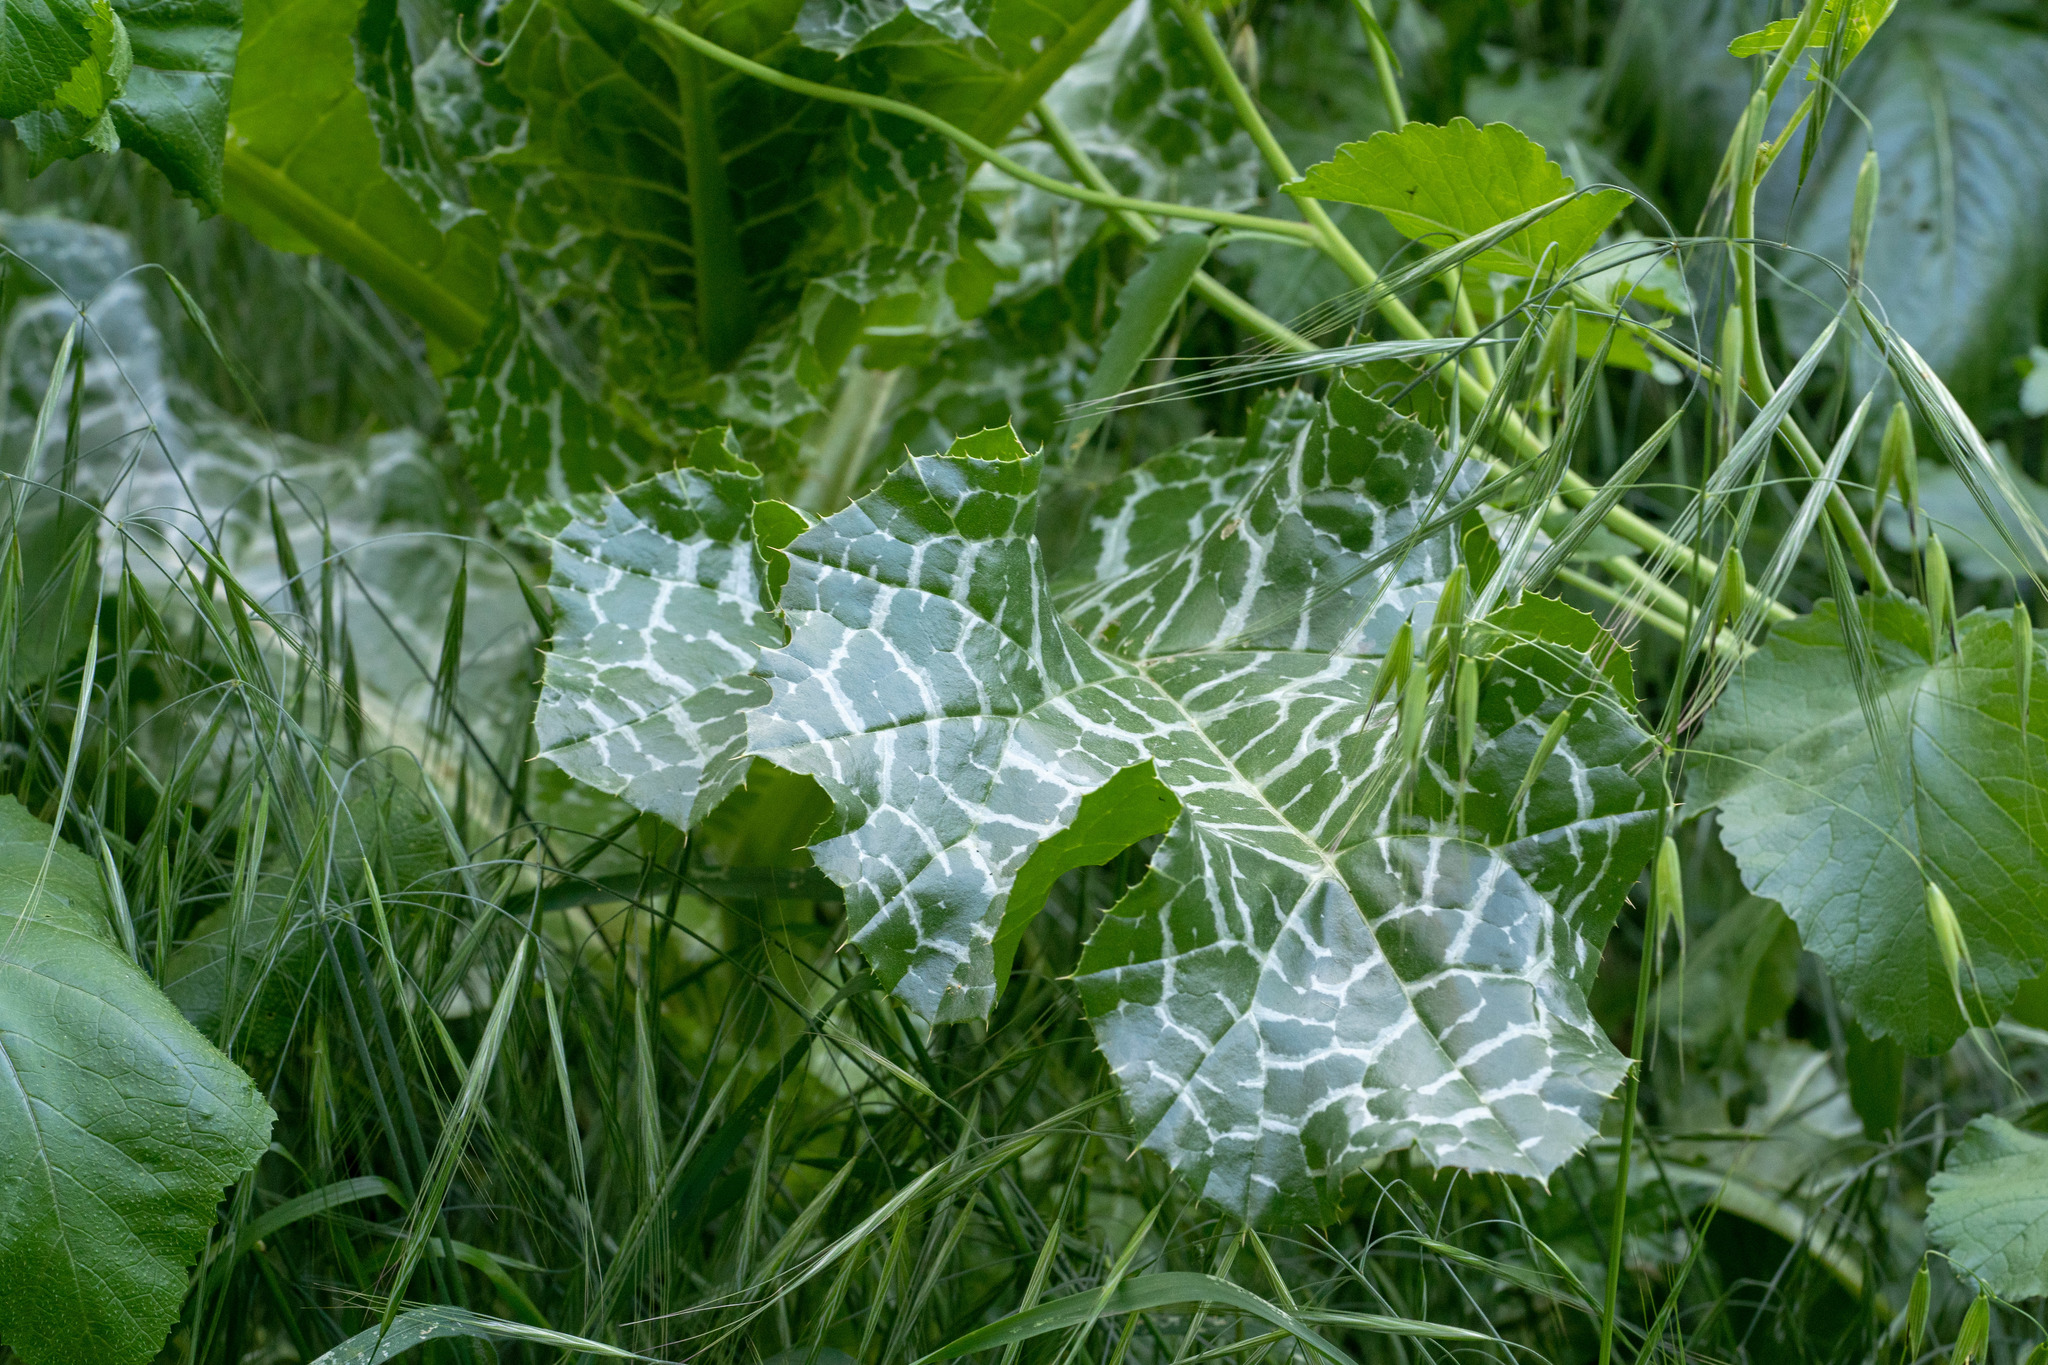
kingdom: Plantae
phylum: Tracheophyta
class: Magnoliopsida
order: Asterales
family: Asteraceae
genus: Silybum
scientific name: Silybum marianum
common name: Milk thistle
